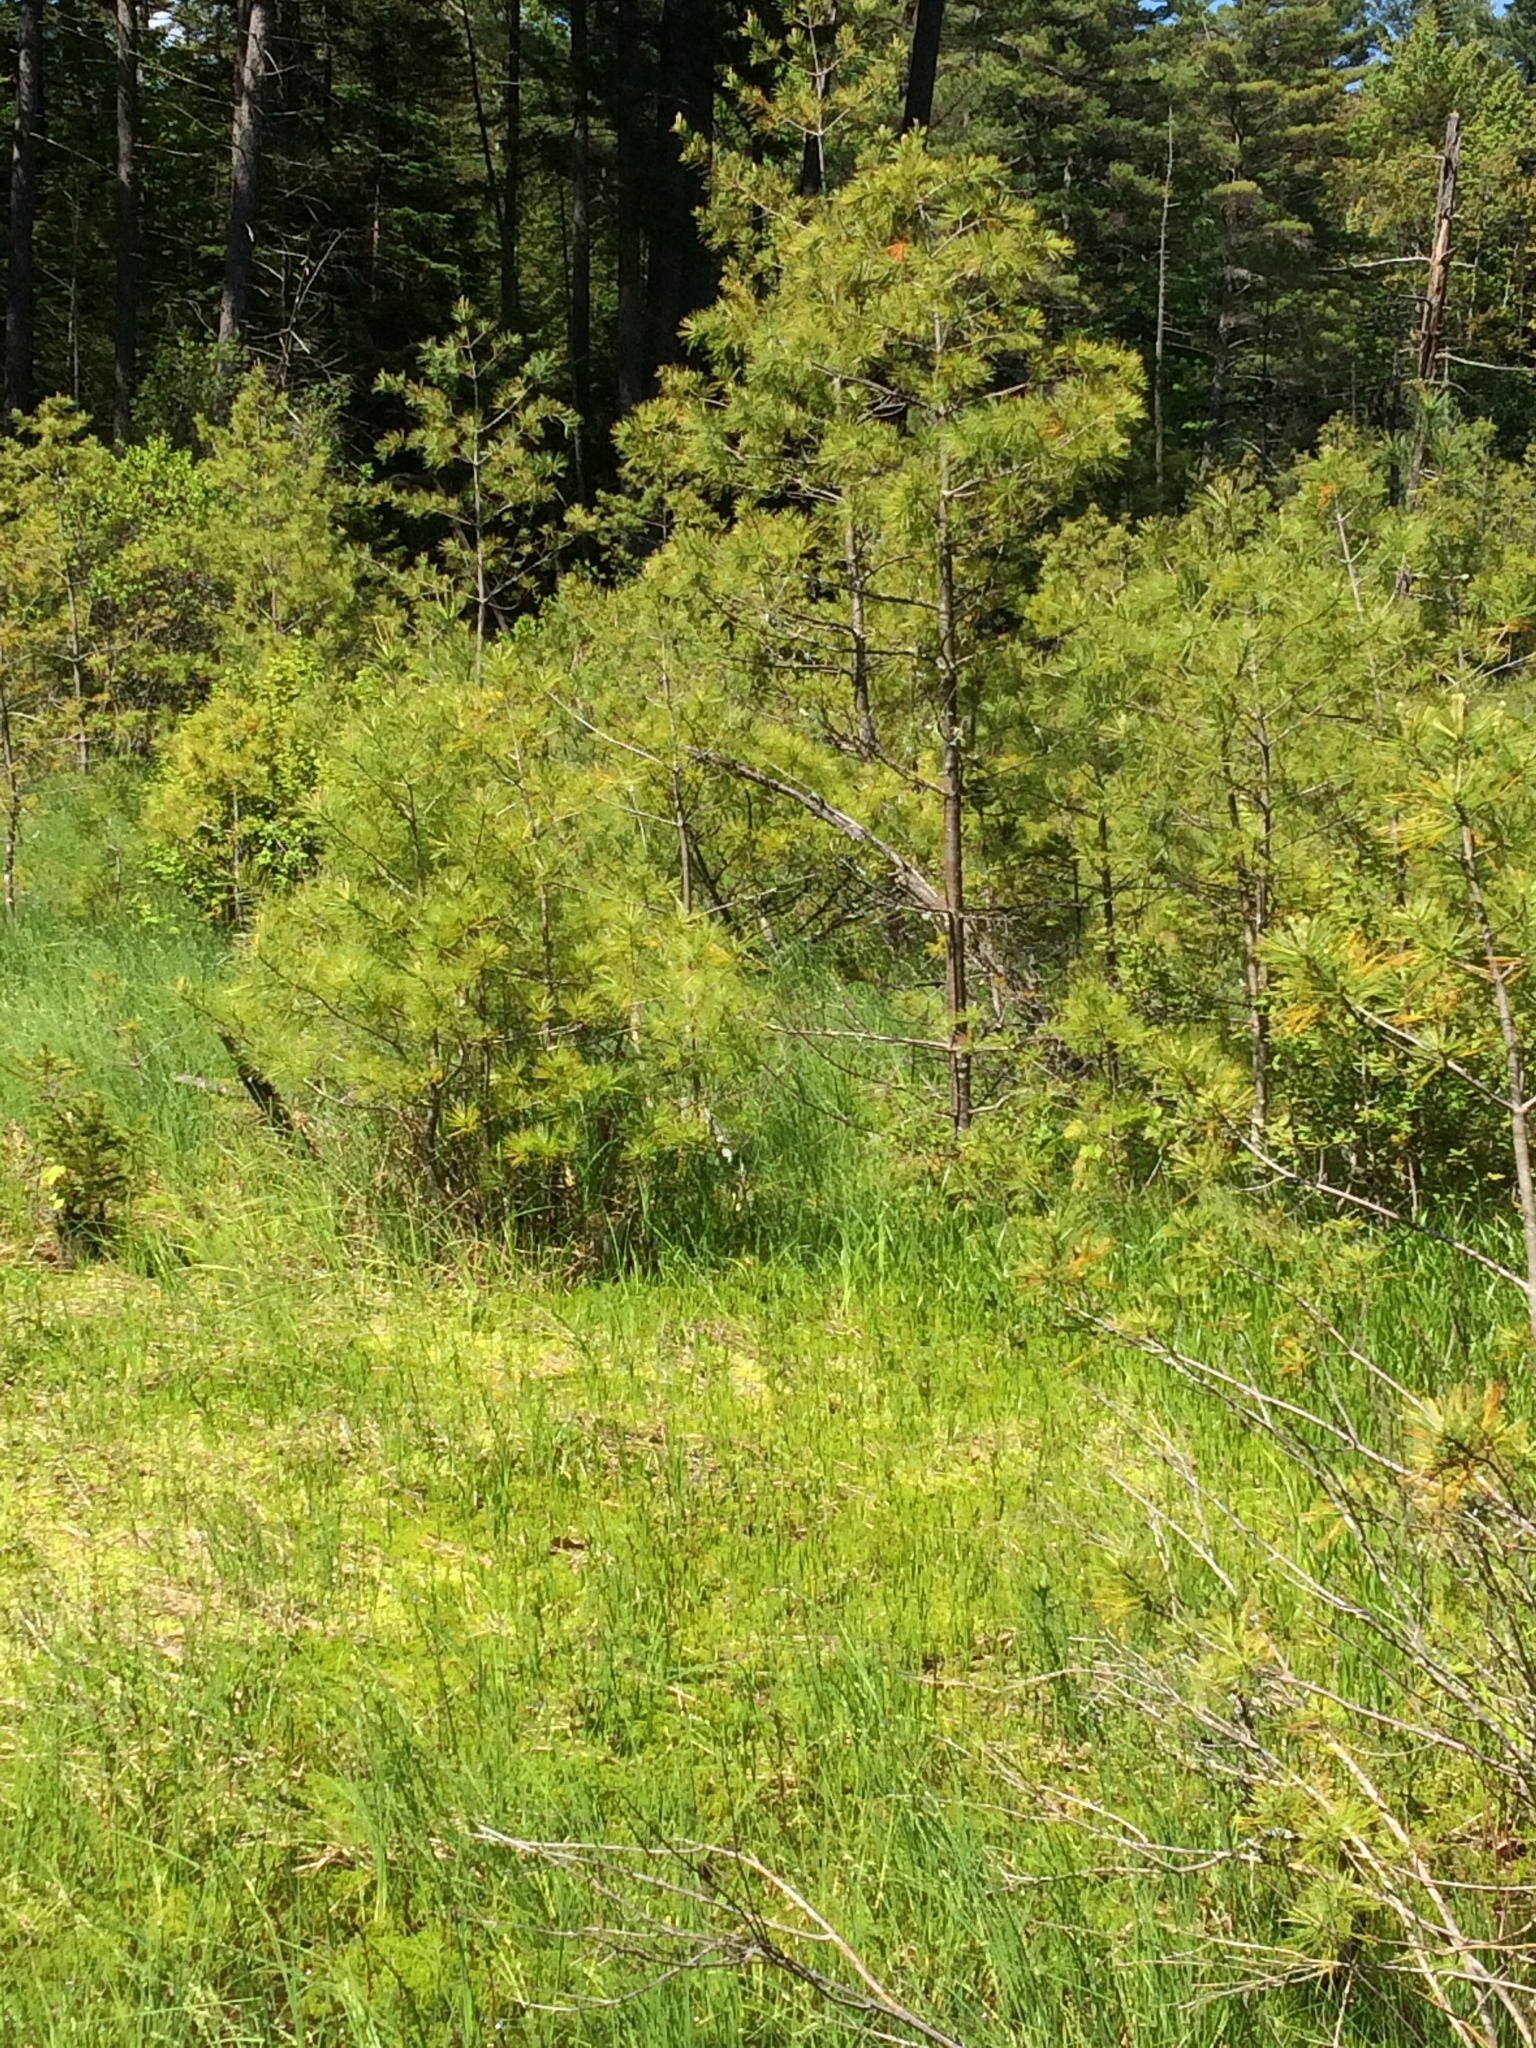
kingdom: Plantae
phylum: Tracheophyta
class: Pinopsida
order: Pinales
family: Pinaceae
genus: Pinus
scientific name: Pinus strobus
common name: Weymouth pine
